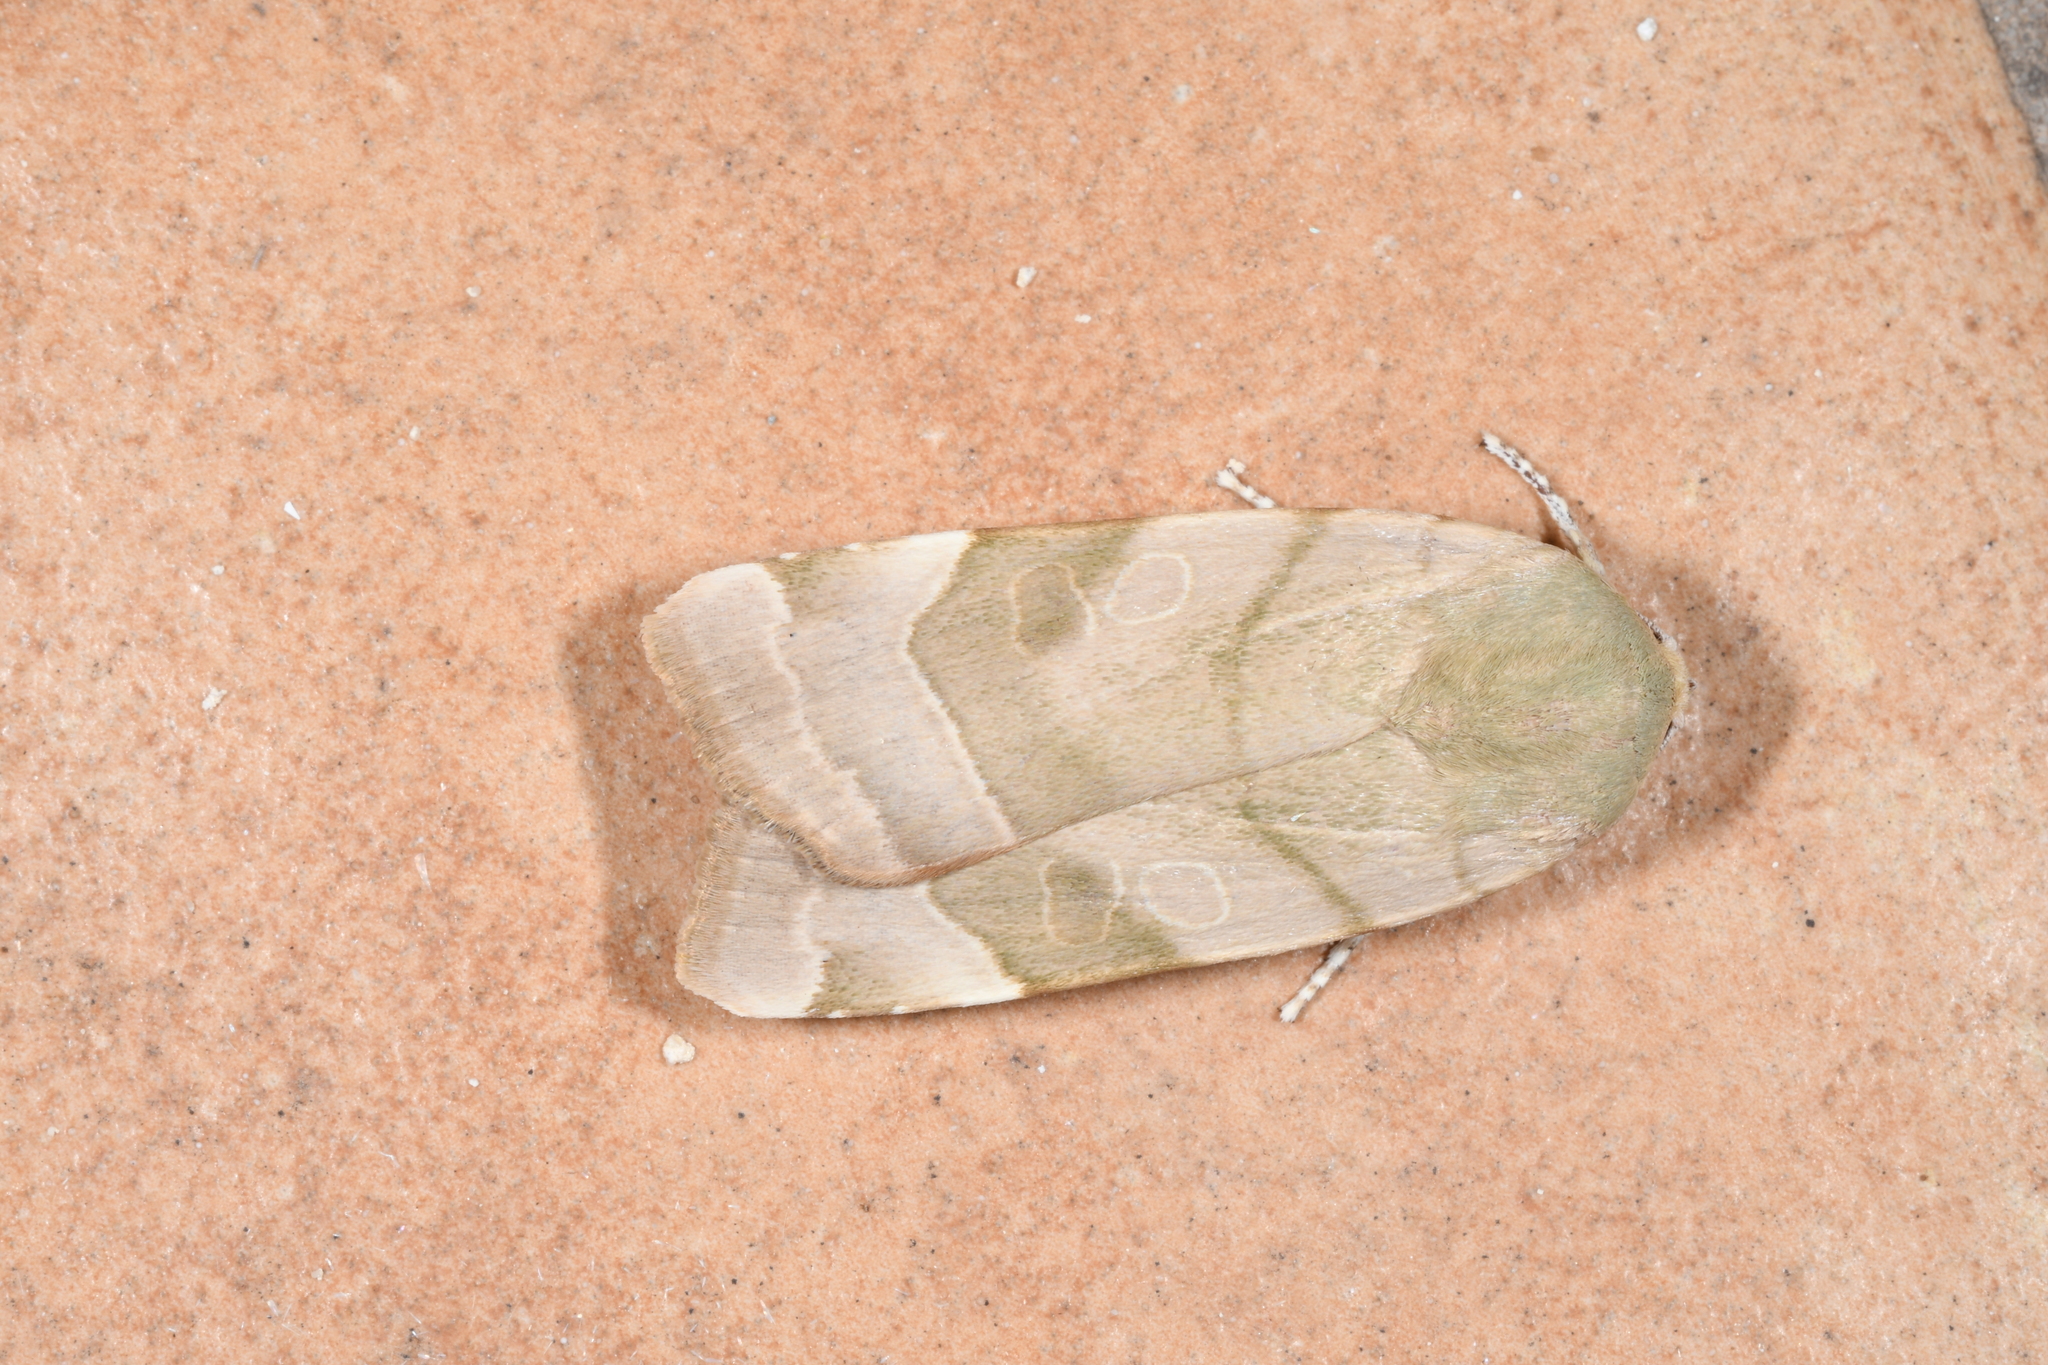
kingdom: Animalia
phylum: Arthropoda
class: Insecta
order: Lepidoptera
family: Noctuidae
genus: Noctua
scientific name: Noctua fimbriata
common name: Broad-bordered yellow underwing
